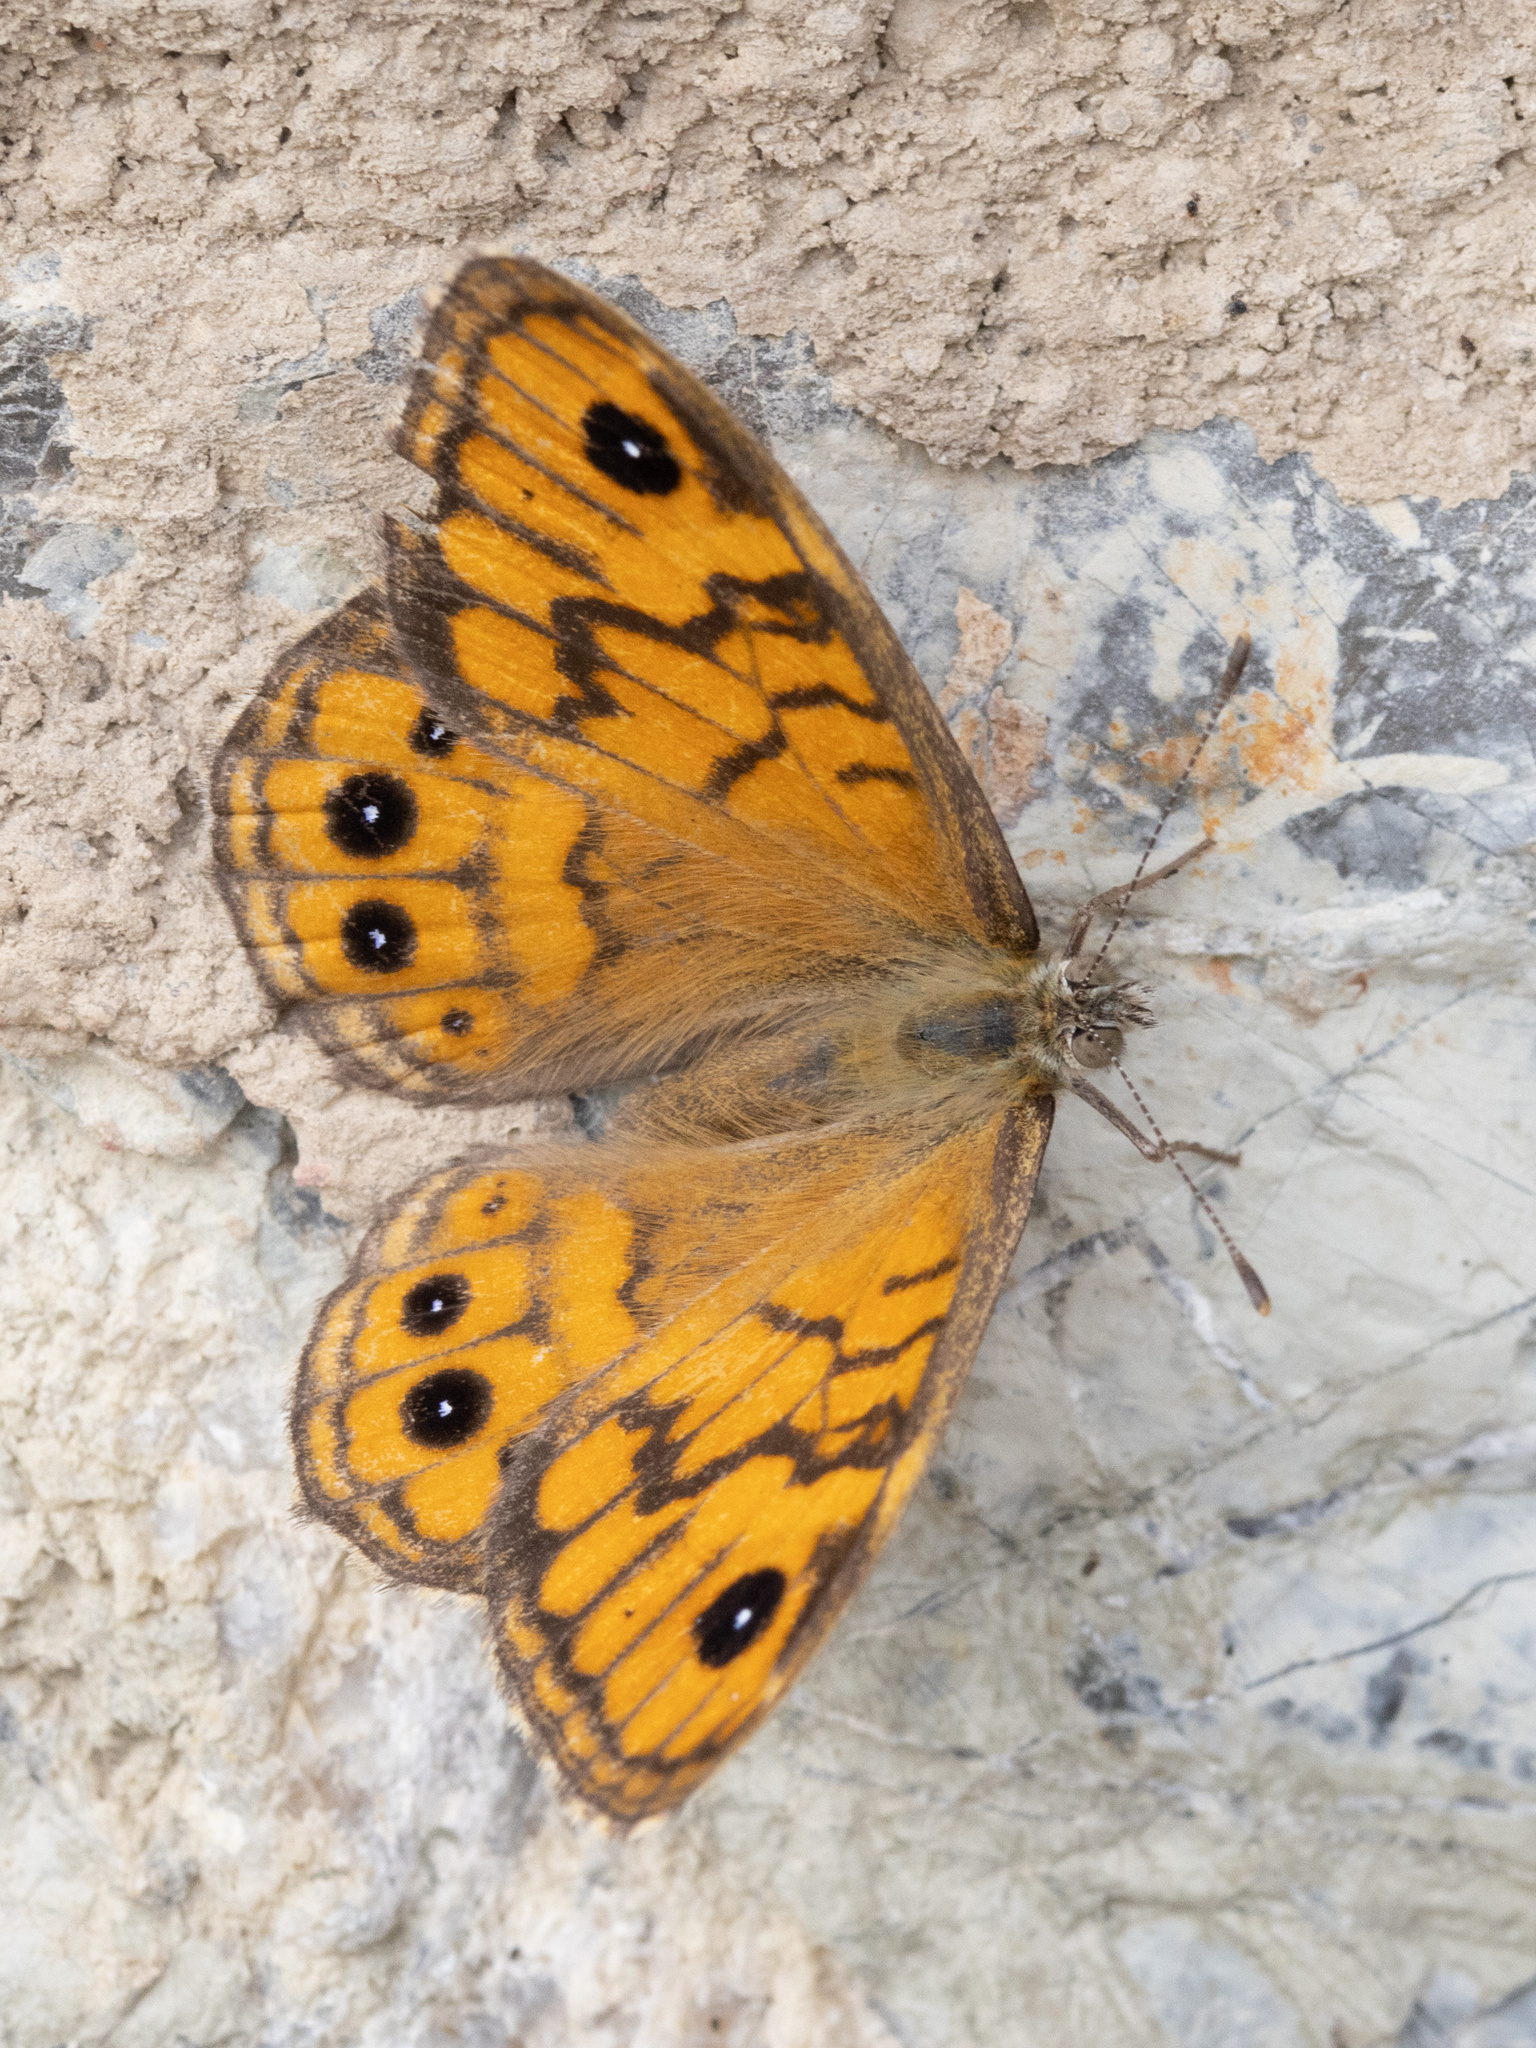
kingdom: Animalia
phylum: Arthropoda
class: Insecta
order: Lepidoptera
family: Nymphalidae
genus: Pararge
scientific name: Pararge Lasiommata megera
